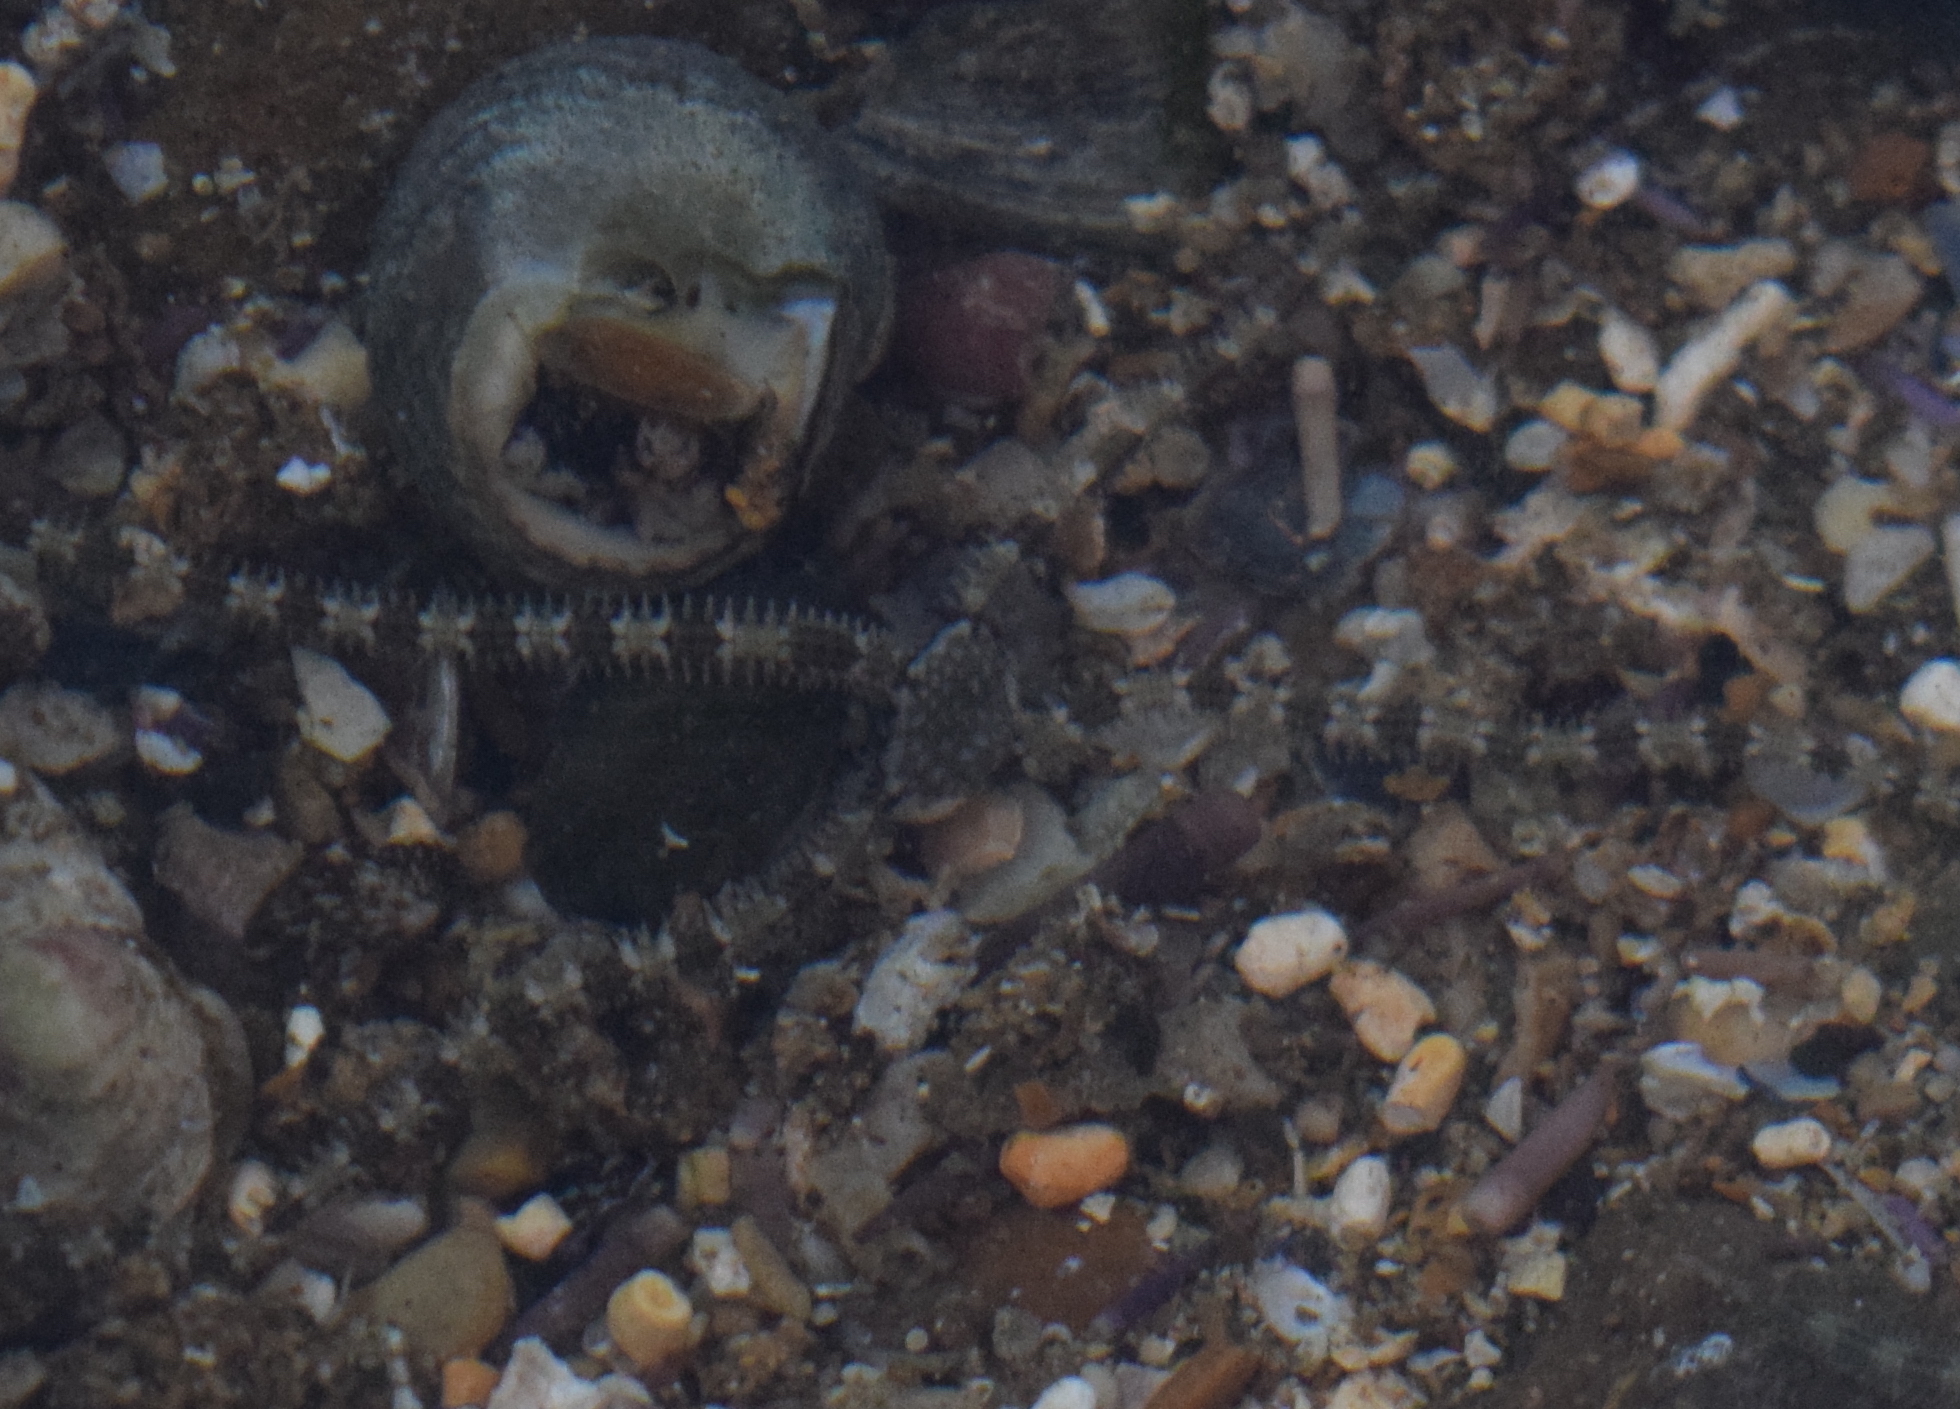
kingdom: Animalia
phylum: Echinodermata
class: Ophiuroidea
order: Amphilepidida
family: Ophionereididae
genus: Ophionereis
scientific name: Ophionereis annulata
